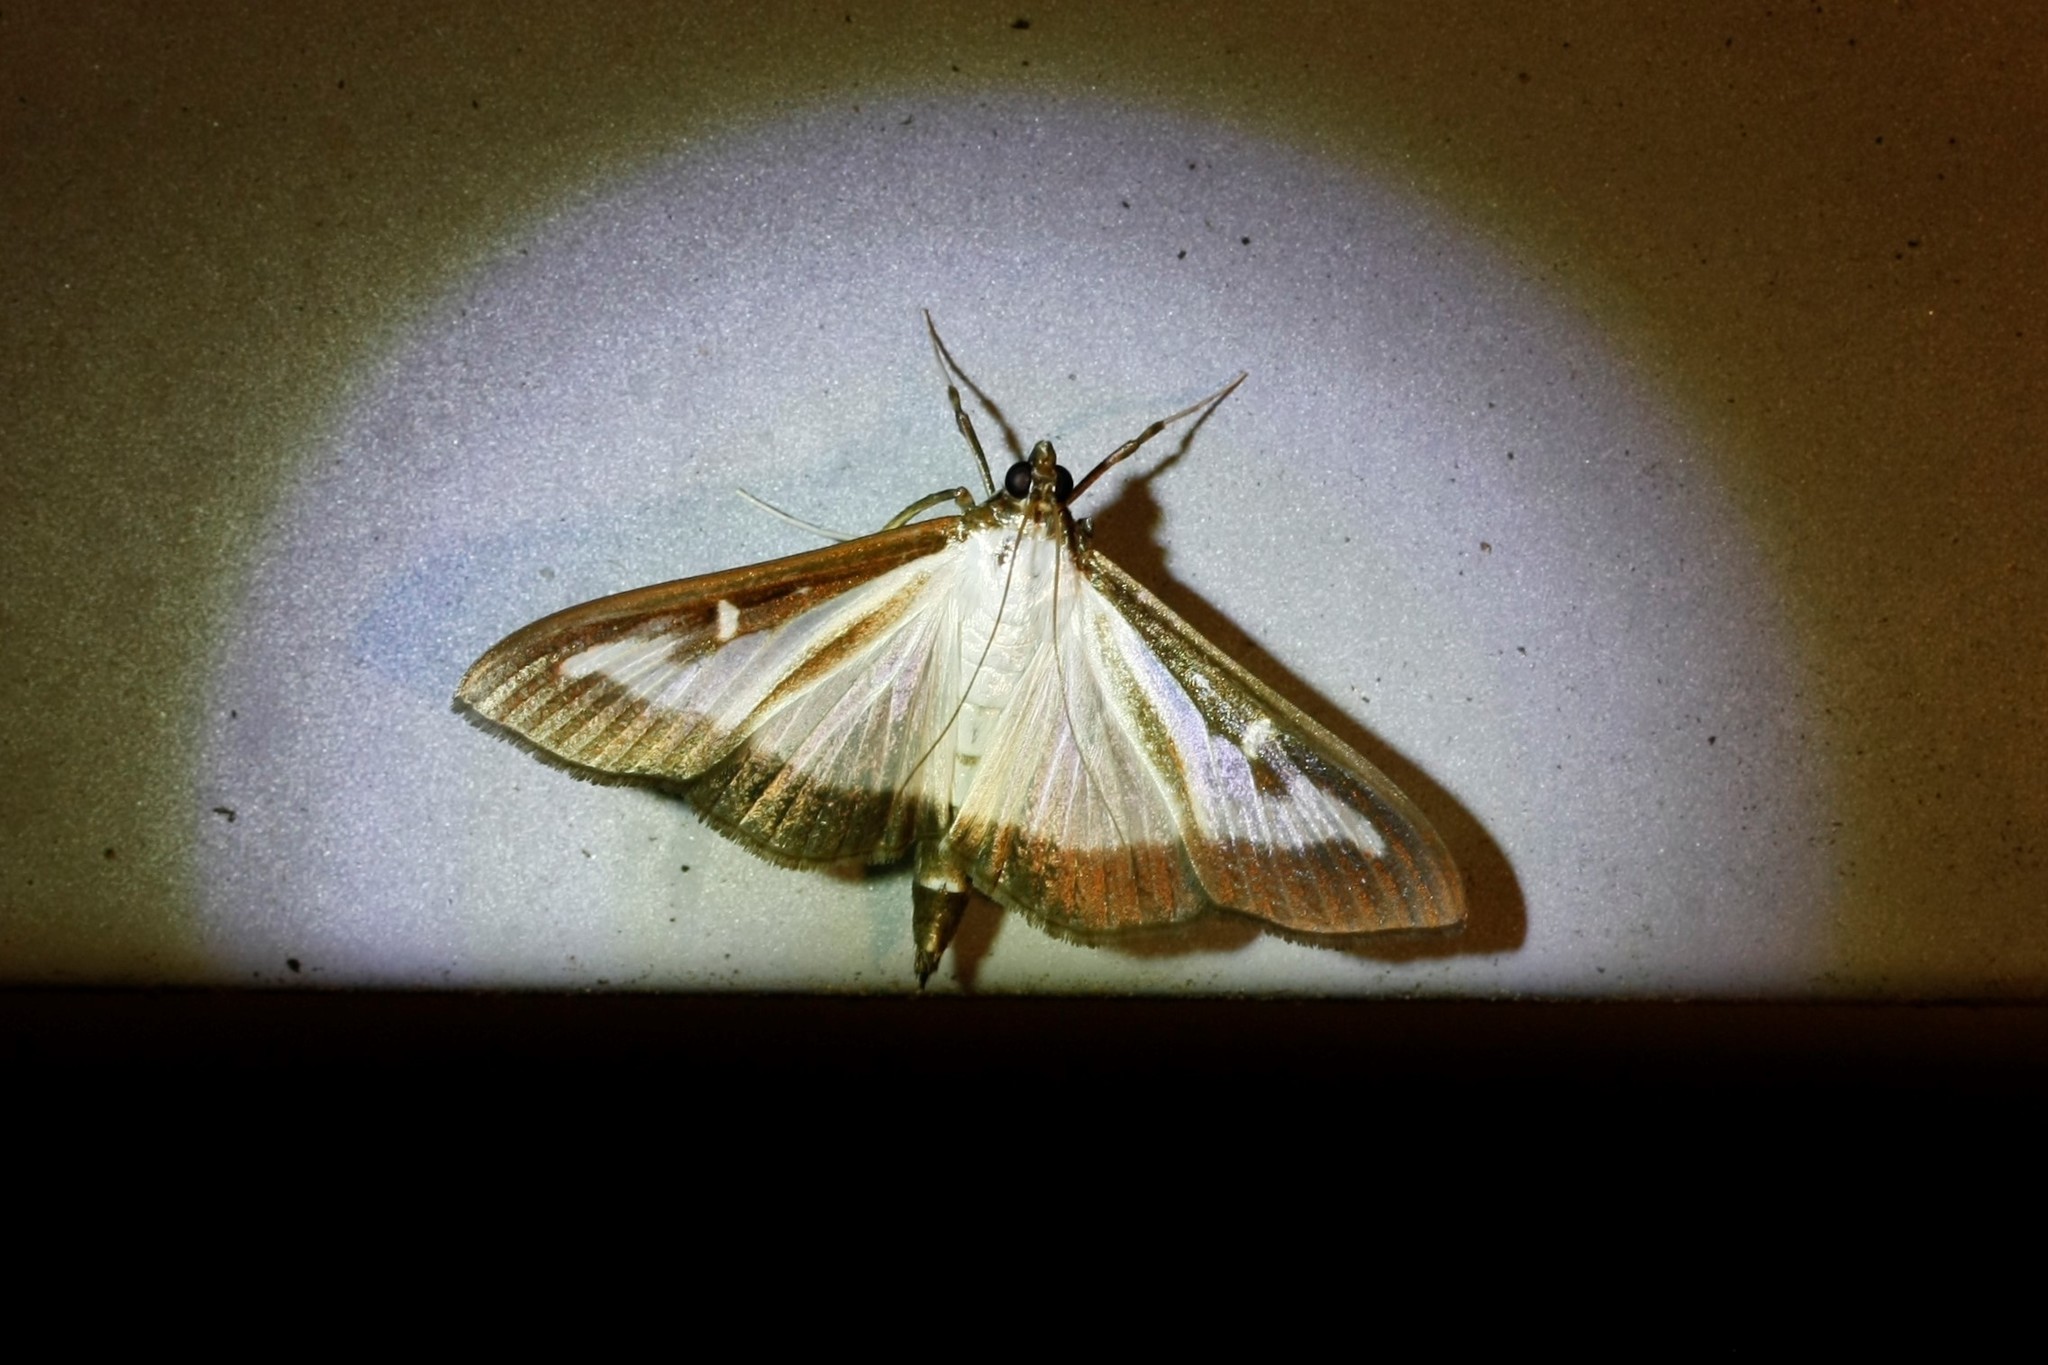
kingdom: Animalia
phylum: Arthropoda
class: Insecta
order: Lepidoptera
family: Crambidae
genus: Cydalima
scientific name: Cydalima perspectalis
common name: Box tree moth
